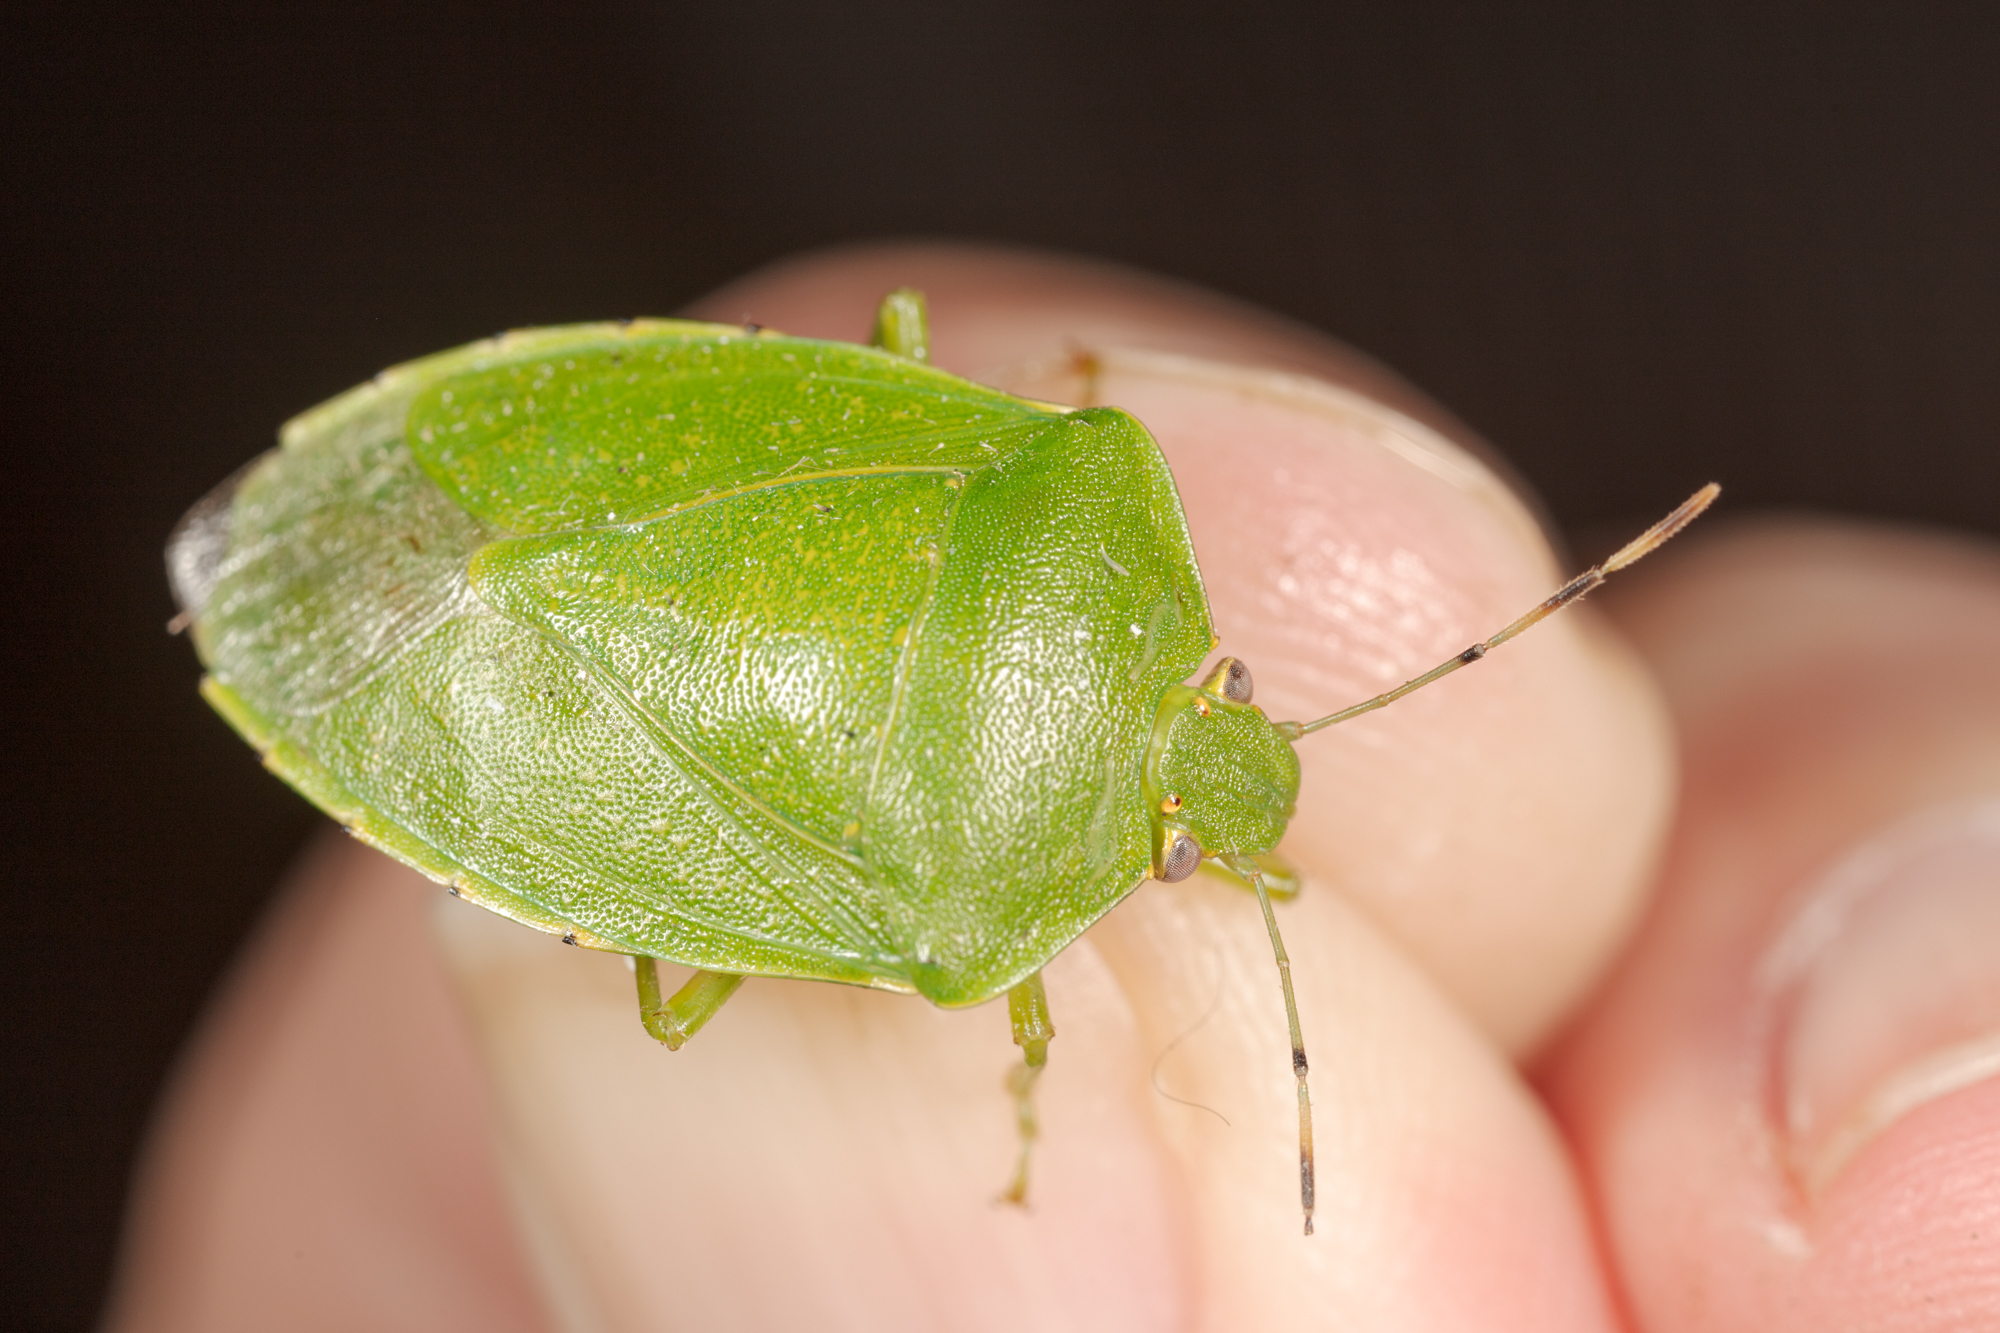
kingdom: Animalia
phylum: Arthropoda
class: Insecta
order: Hemiptera
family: Pentatomidae
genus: Chinavia
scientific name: Chinavia hilaris
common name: Green stink bug
